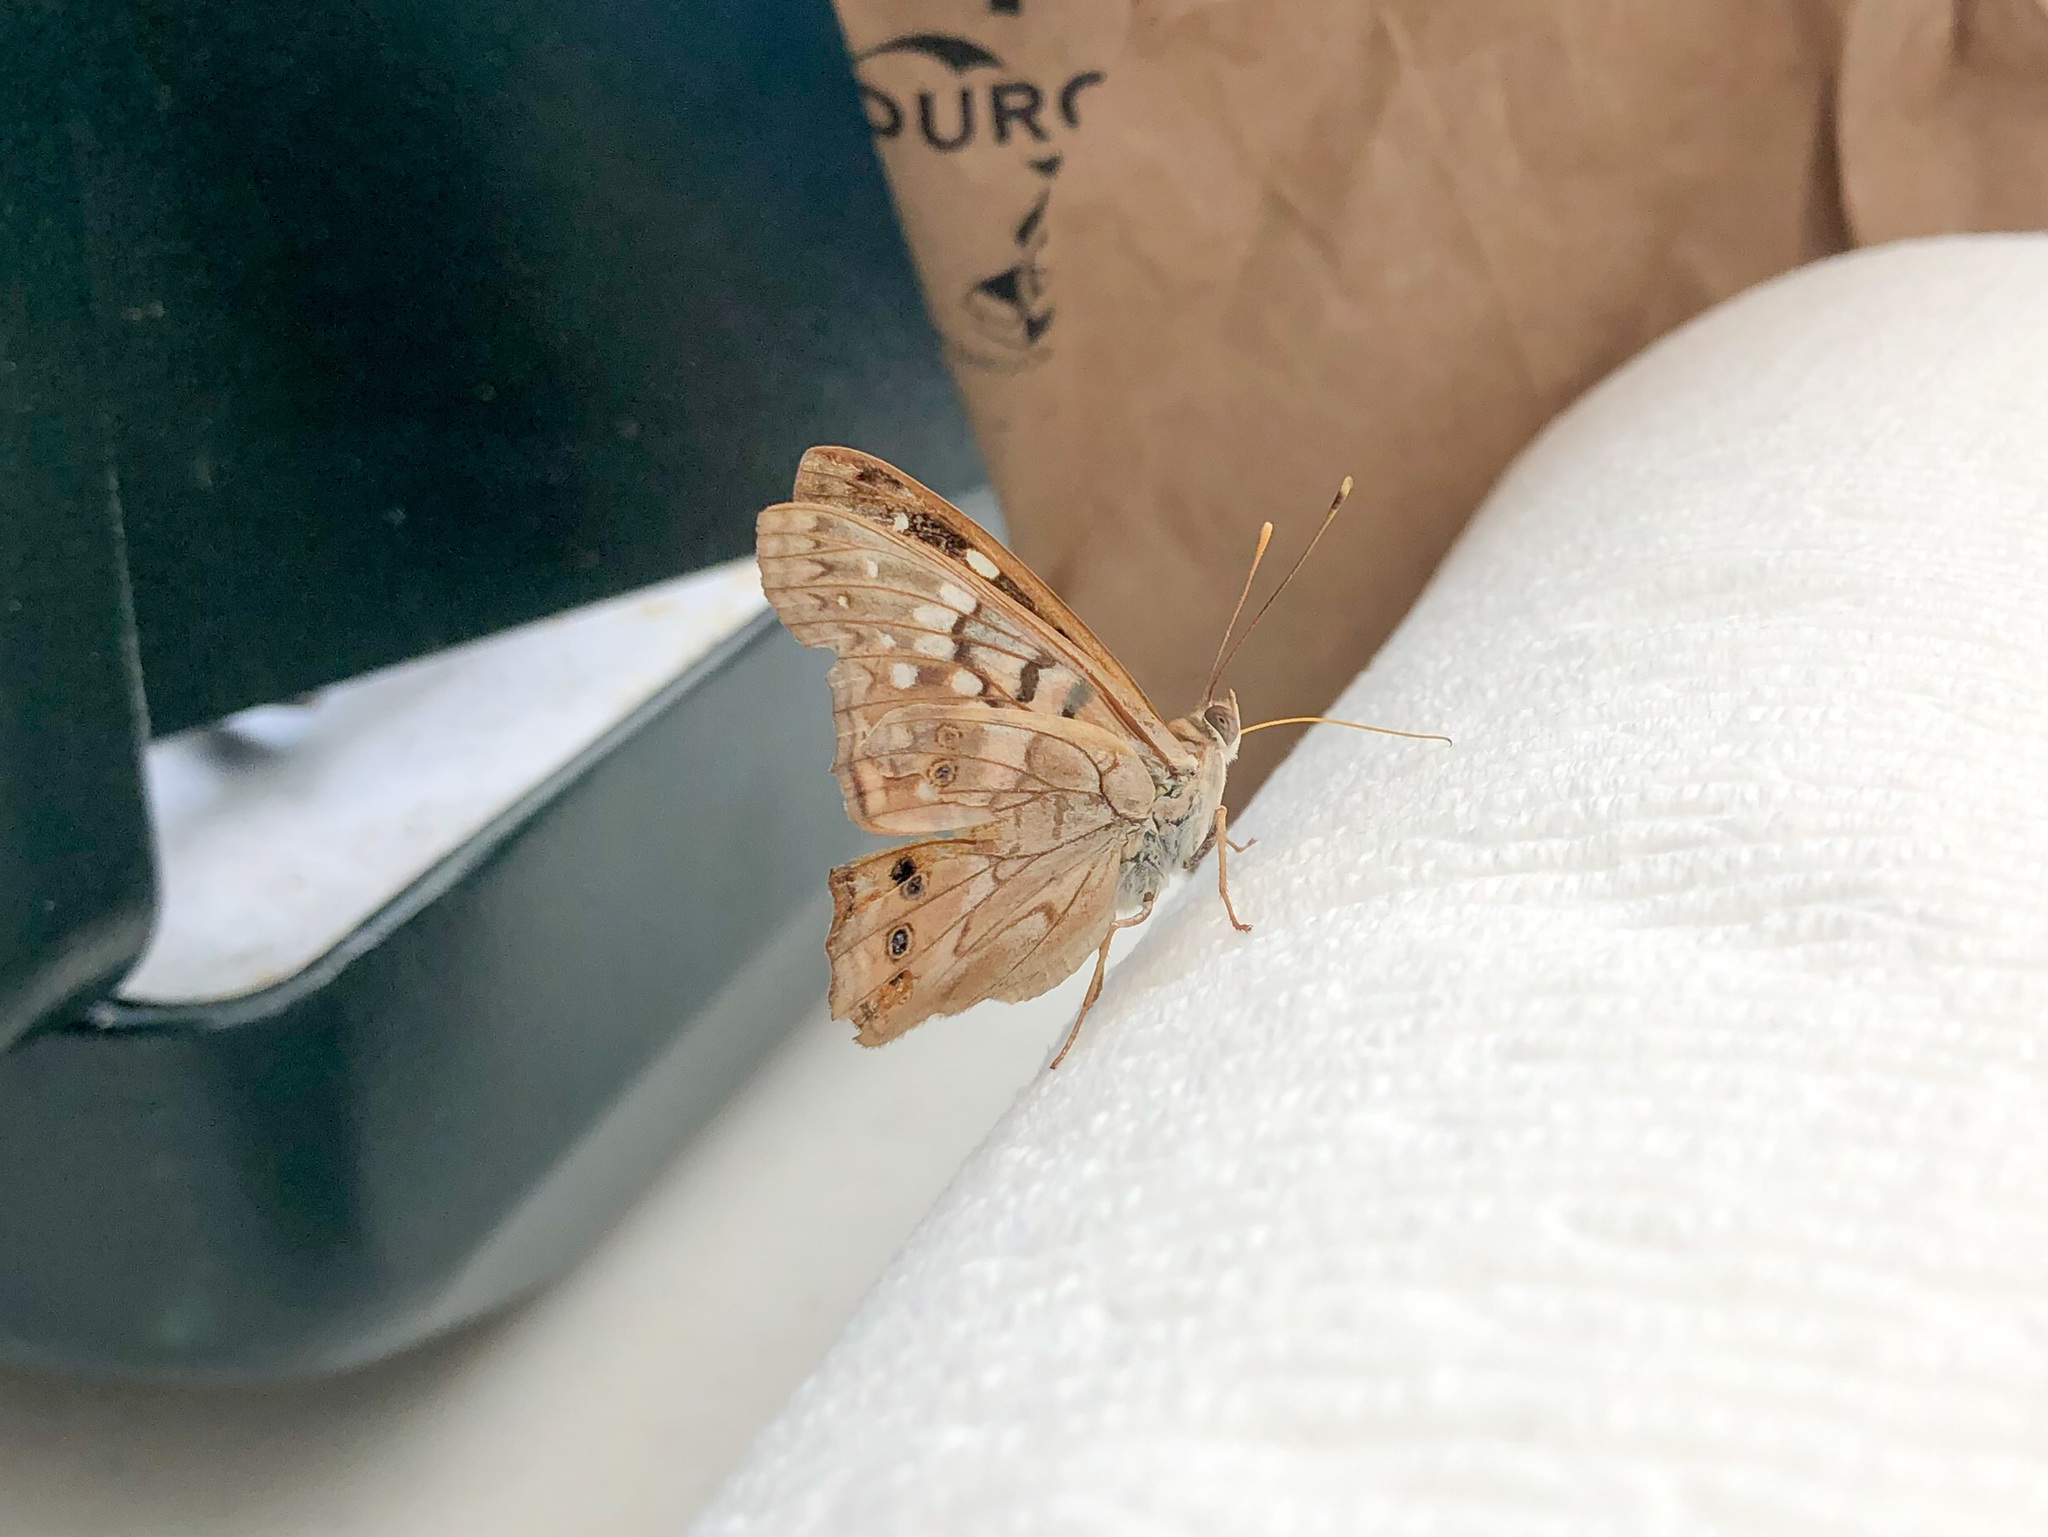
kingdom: Animalia
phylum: Arthropoda
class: Insecta
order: Lepidoptera
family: Nymphalidae
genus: Asterocampa
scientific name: Asterocampa clyton
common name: Tawny emperor
